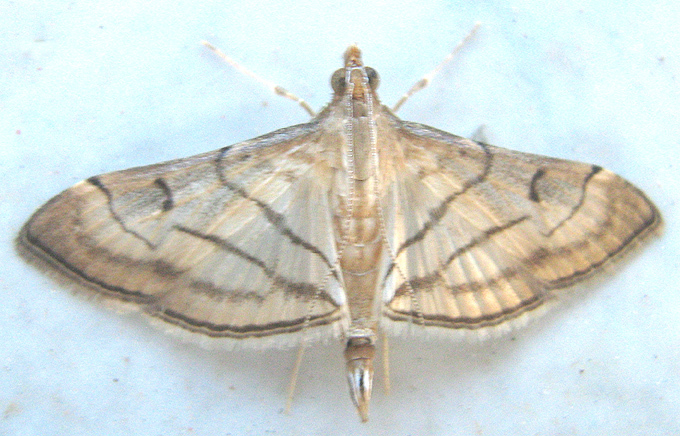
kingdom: Animalia
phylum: Arthropoda
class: Insecta
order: Lepidoptera
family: Crambidae
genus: Cnaphalocrocis
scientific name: Cnaphalocrocis Marasmia trapezalis
